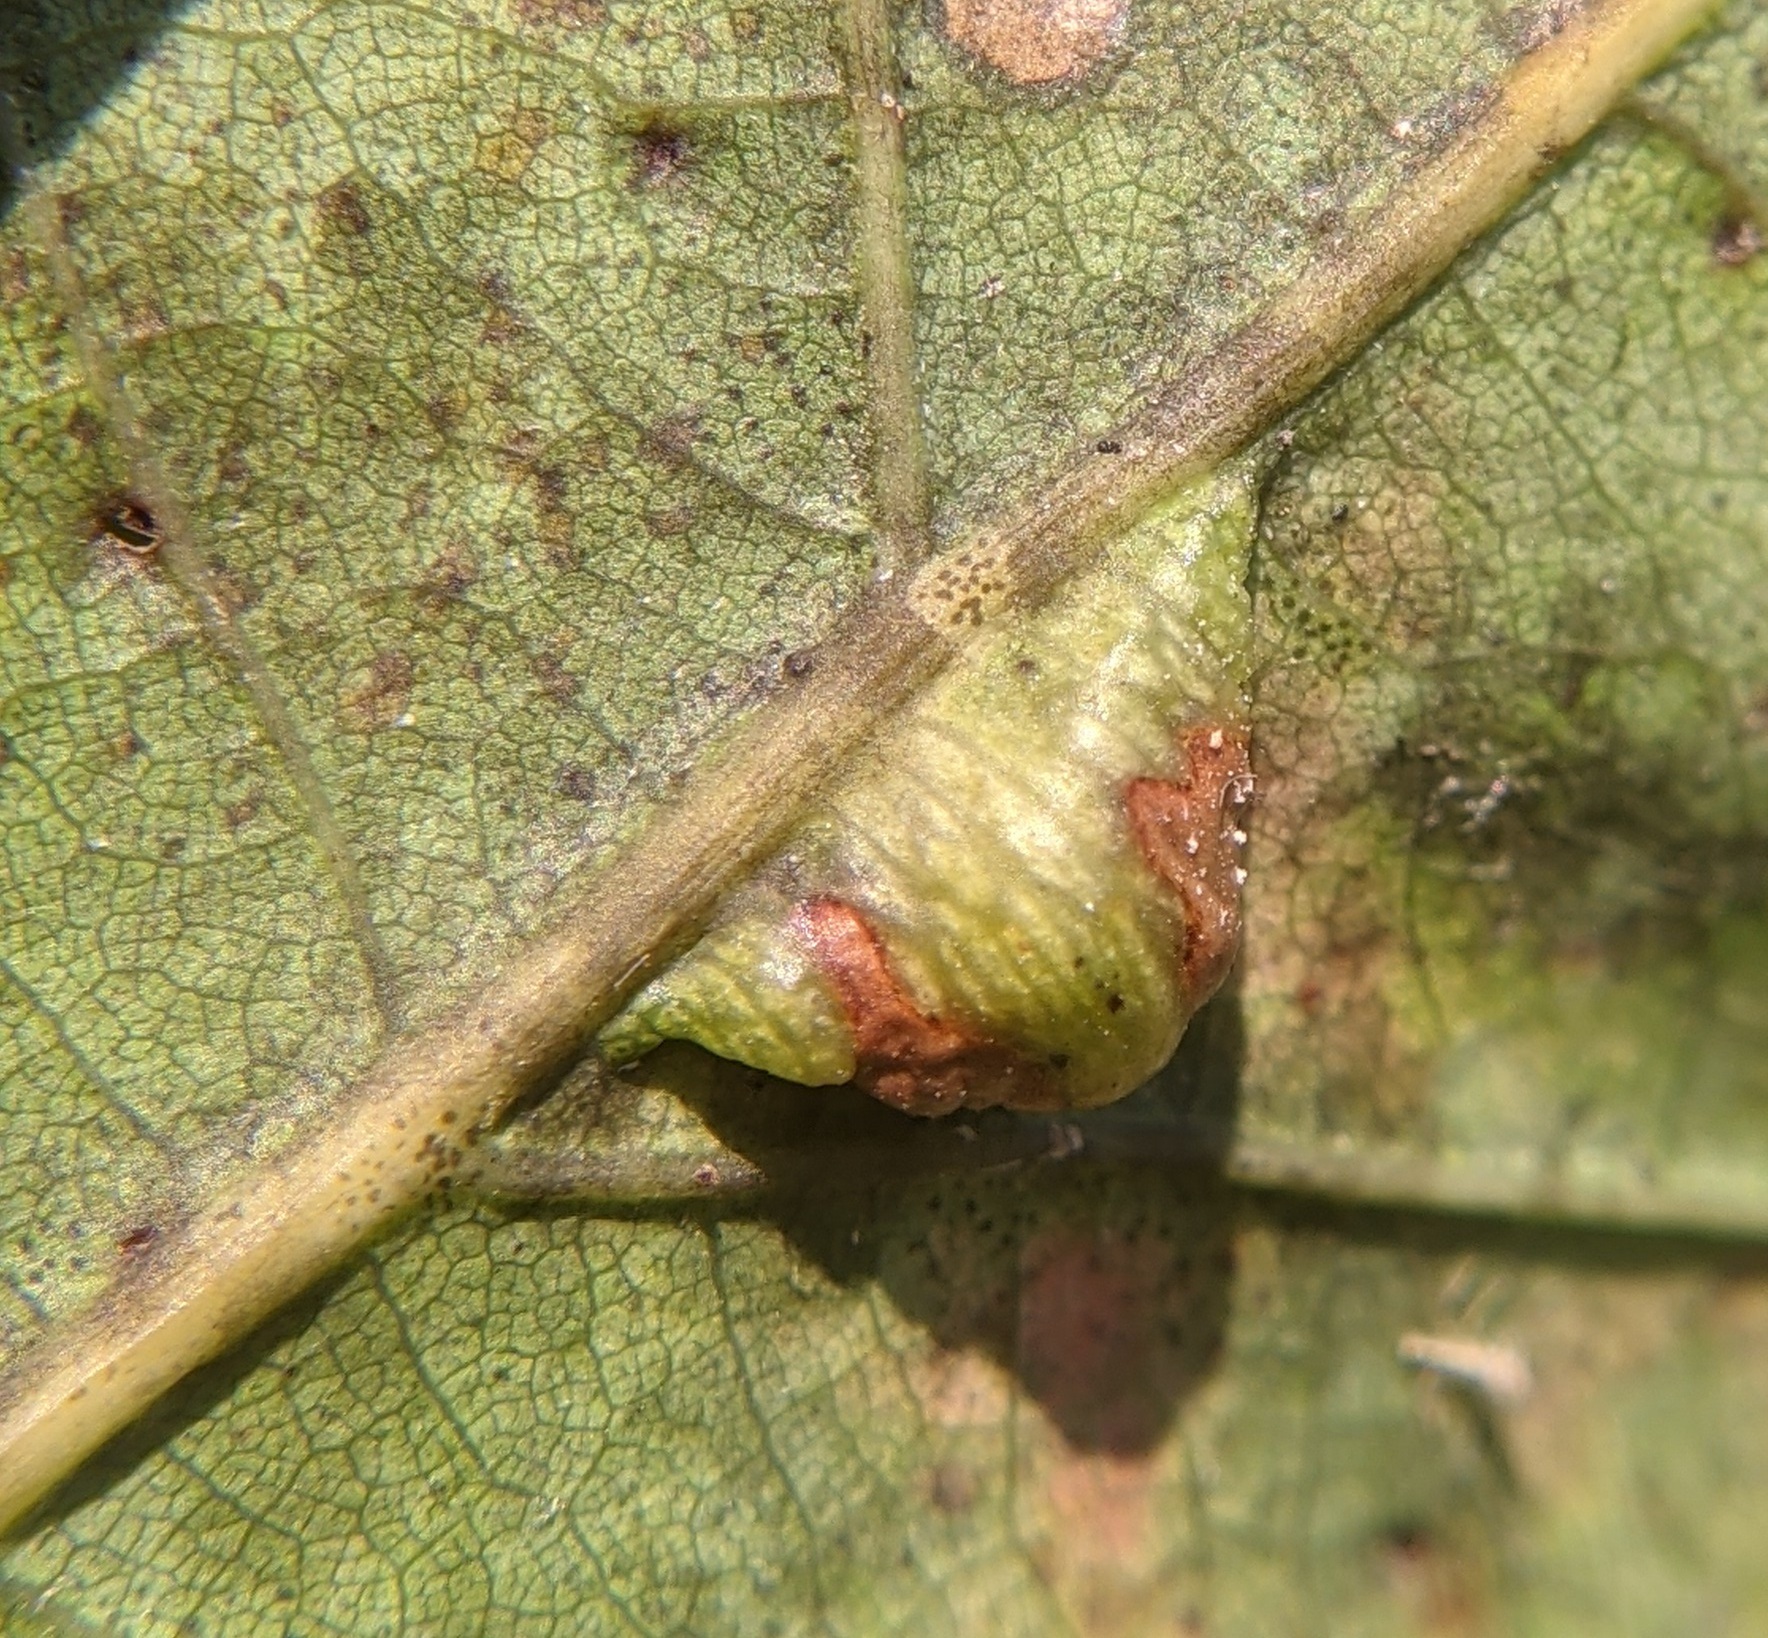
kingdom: Animalia
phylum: Arthropoda
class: Insecta
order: Diptera
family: Cecidomyiidae
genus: Macrodiplosis
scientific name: Macrodiplosis majalis
